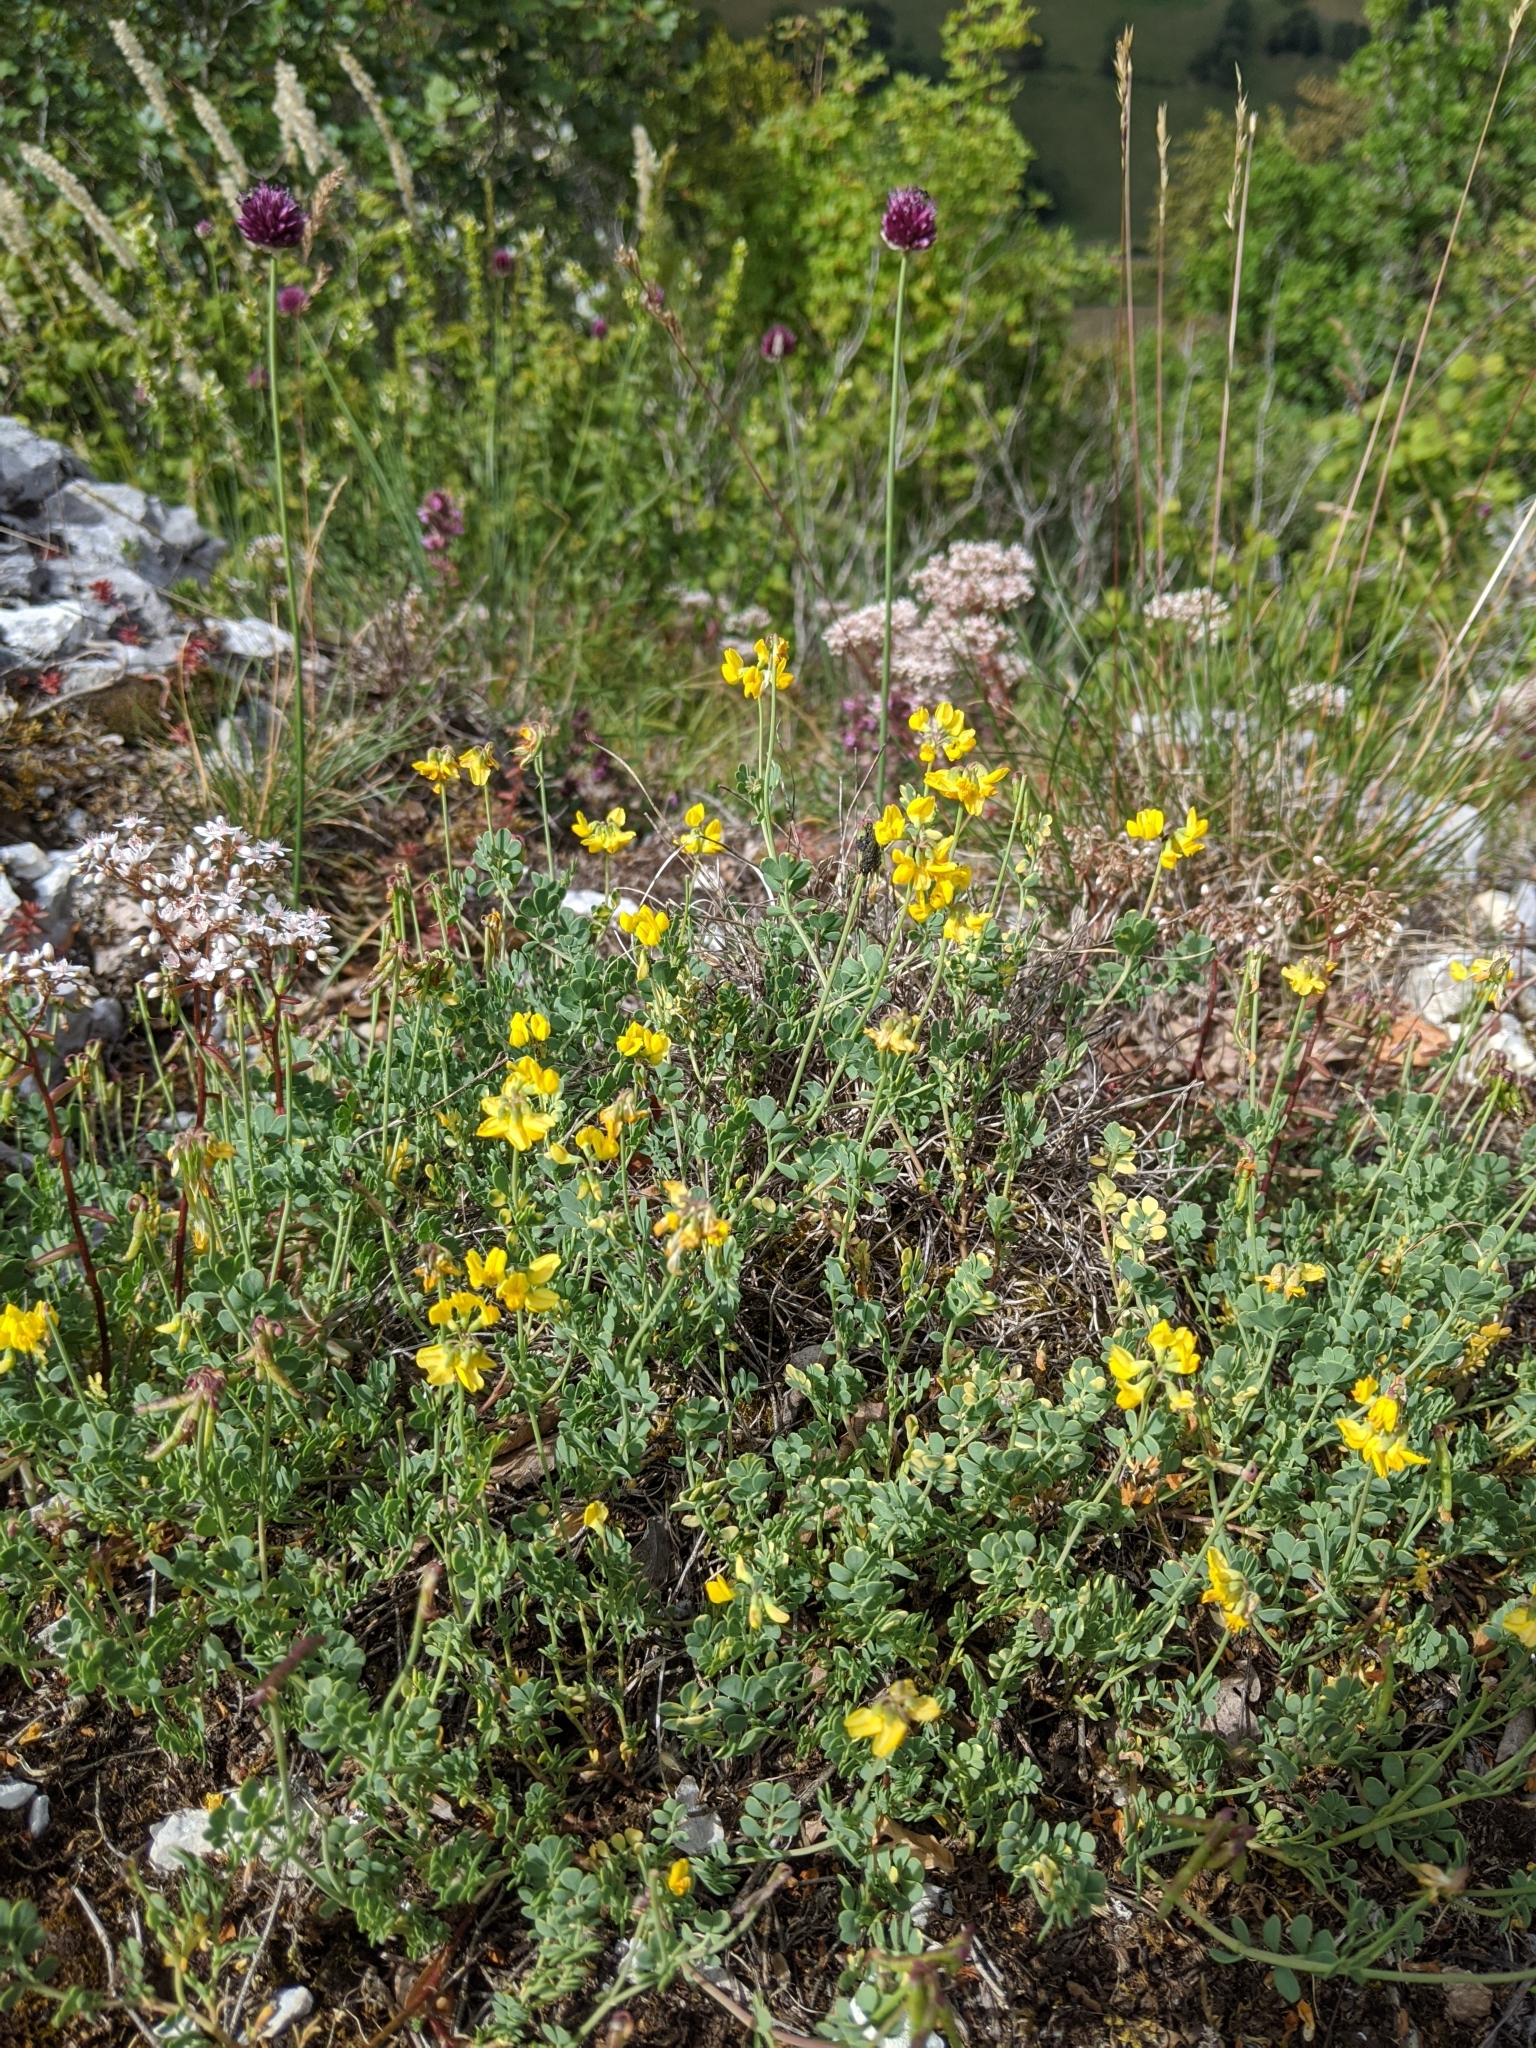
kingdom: Plantae
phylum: Tracheophyta
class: Magnoliopsida
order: Fabales
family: Fabaceae
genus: Coronilla
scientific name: Coronilla minima
